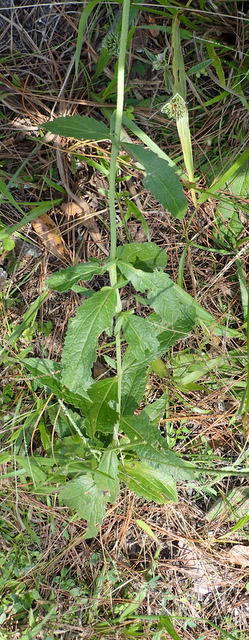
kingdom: Plantae
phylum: Tracheophyta
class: Magnoliopsida
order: Asterales
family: Asteraceae
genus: Eupatorium
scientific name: Eupatorium album
